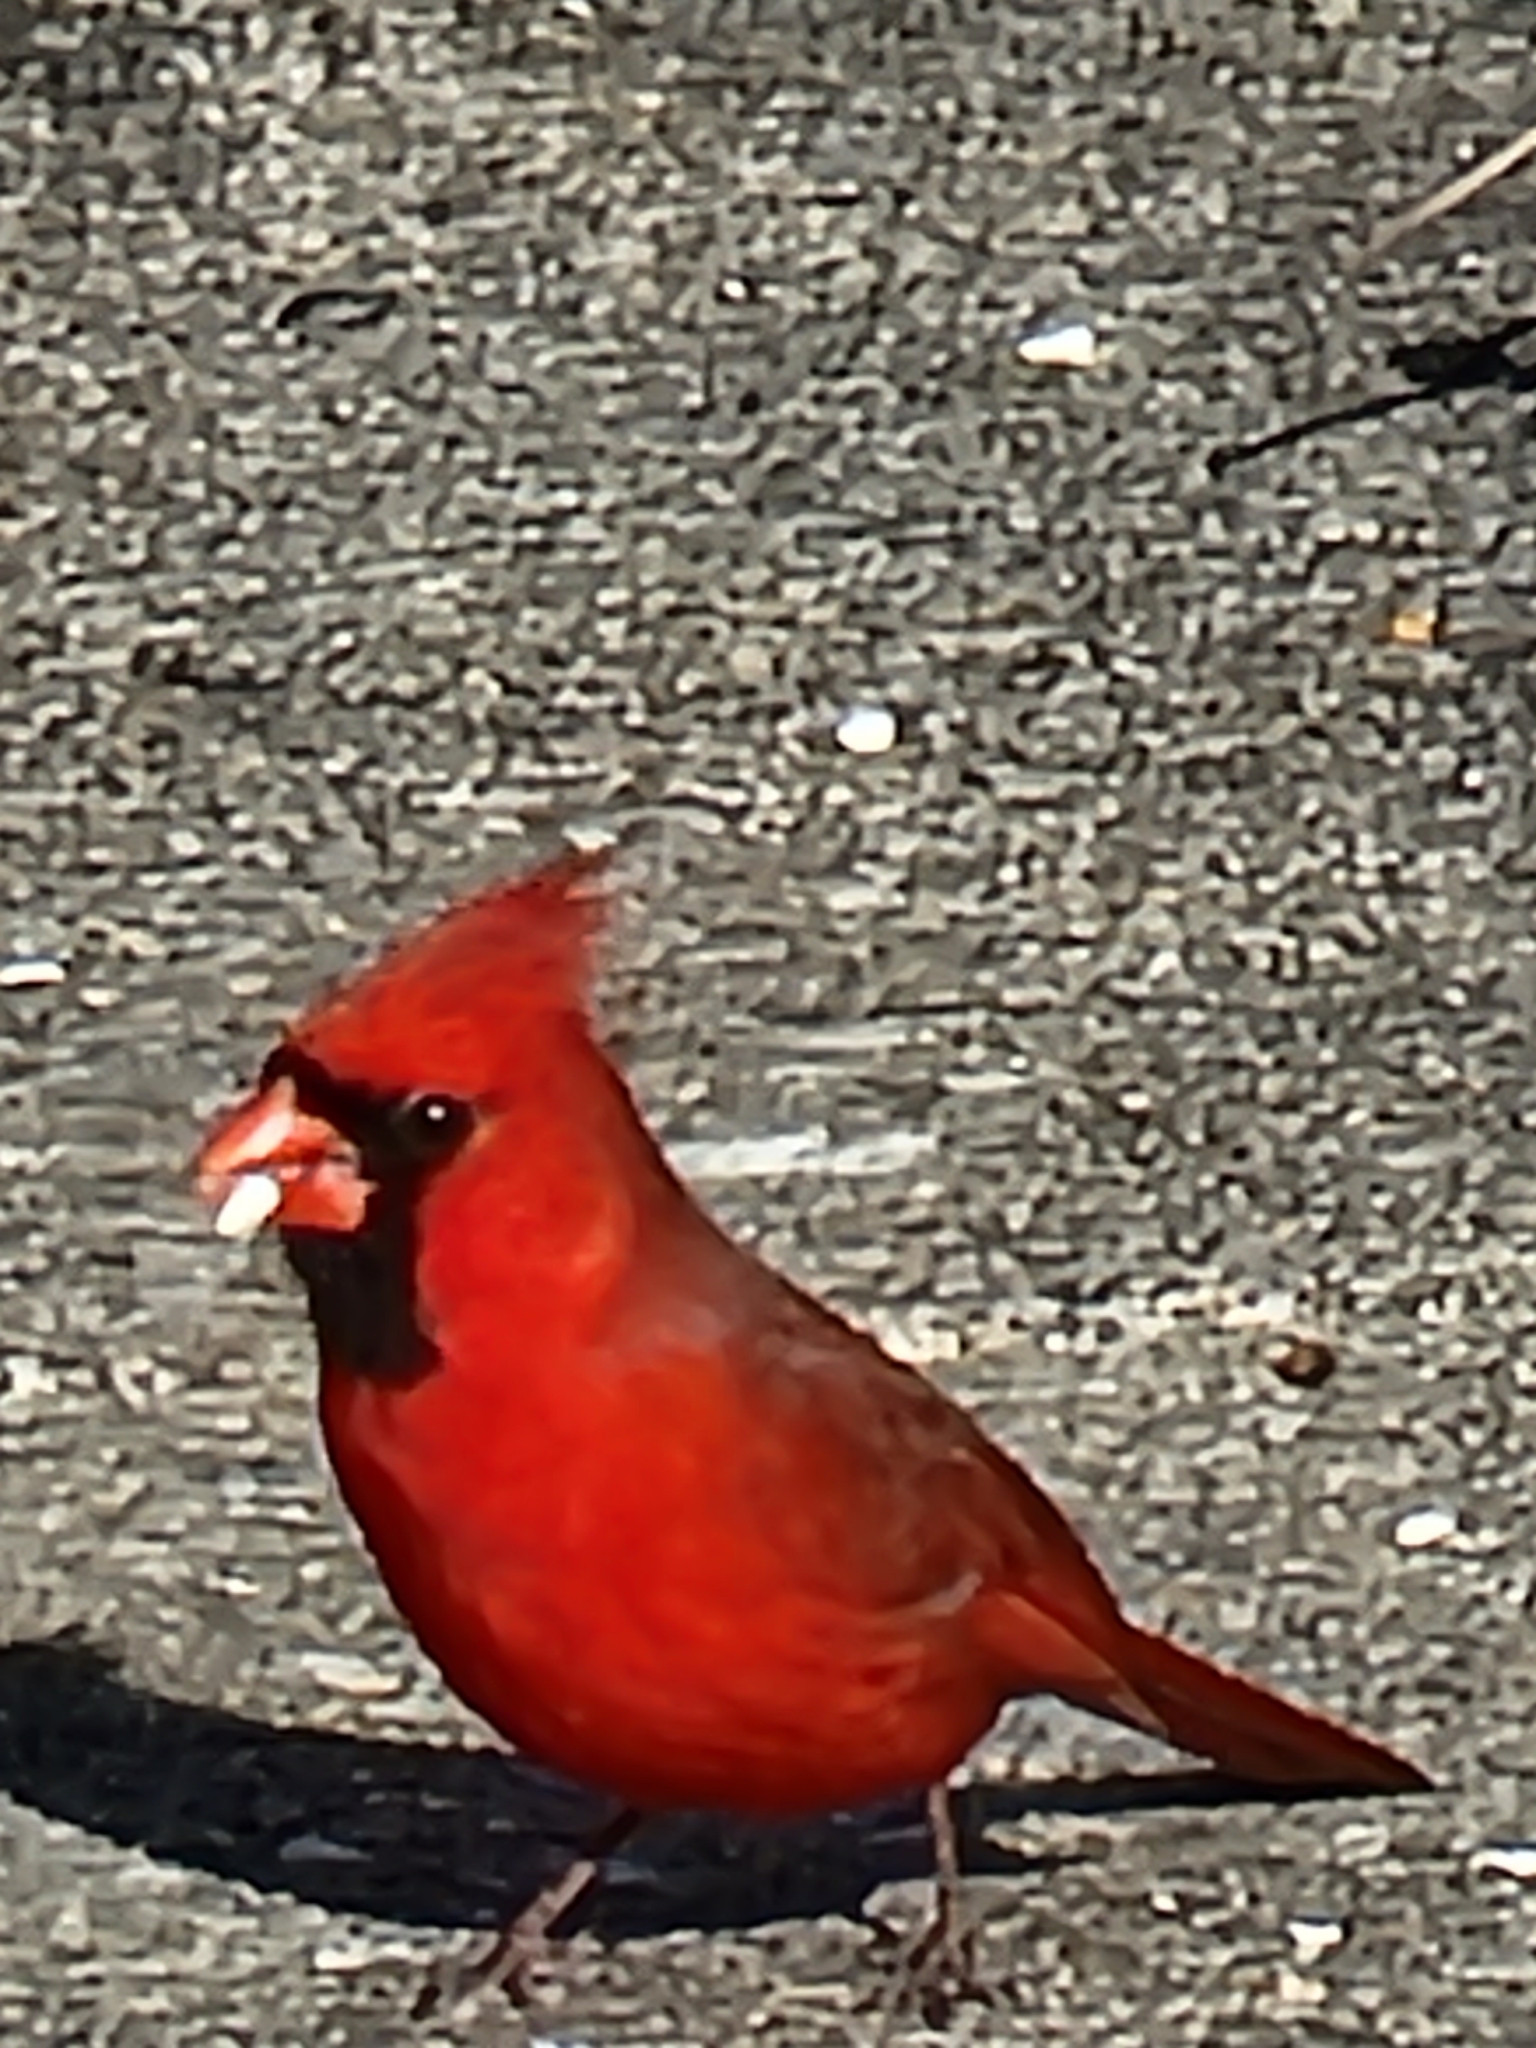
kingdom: Animalia
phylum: Chordata
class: Aves
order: Passeriformes
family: Cardinalidae
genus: Cardinalis
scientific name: Cardinalis cardinalis
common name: Northern cardinal
